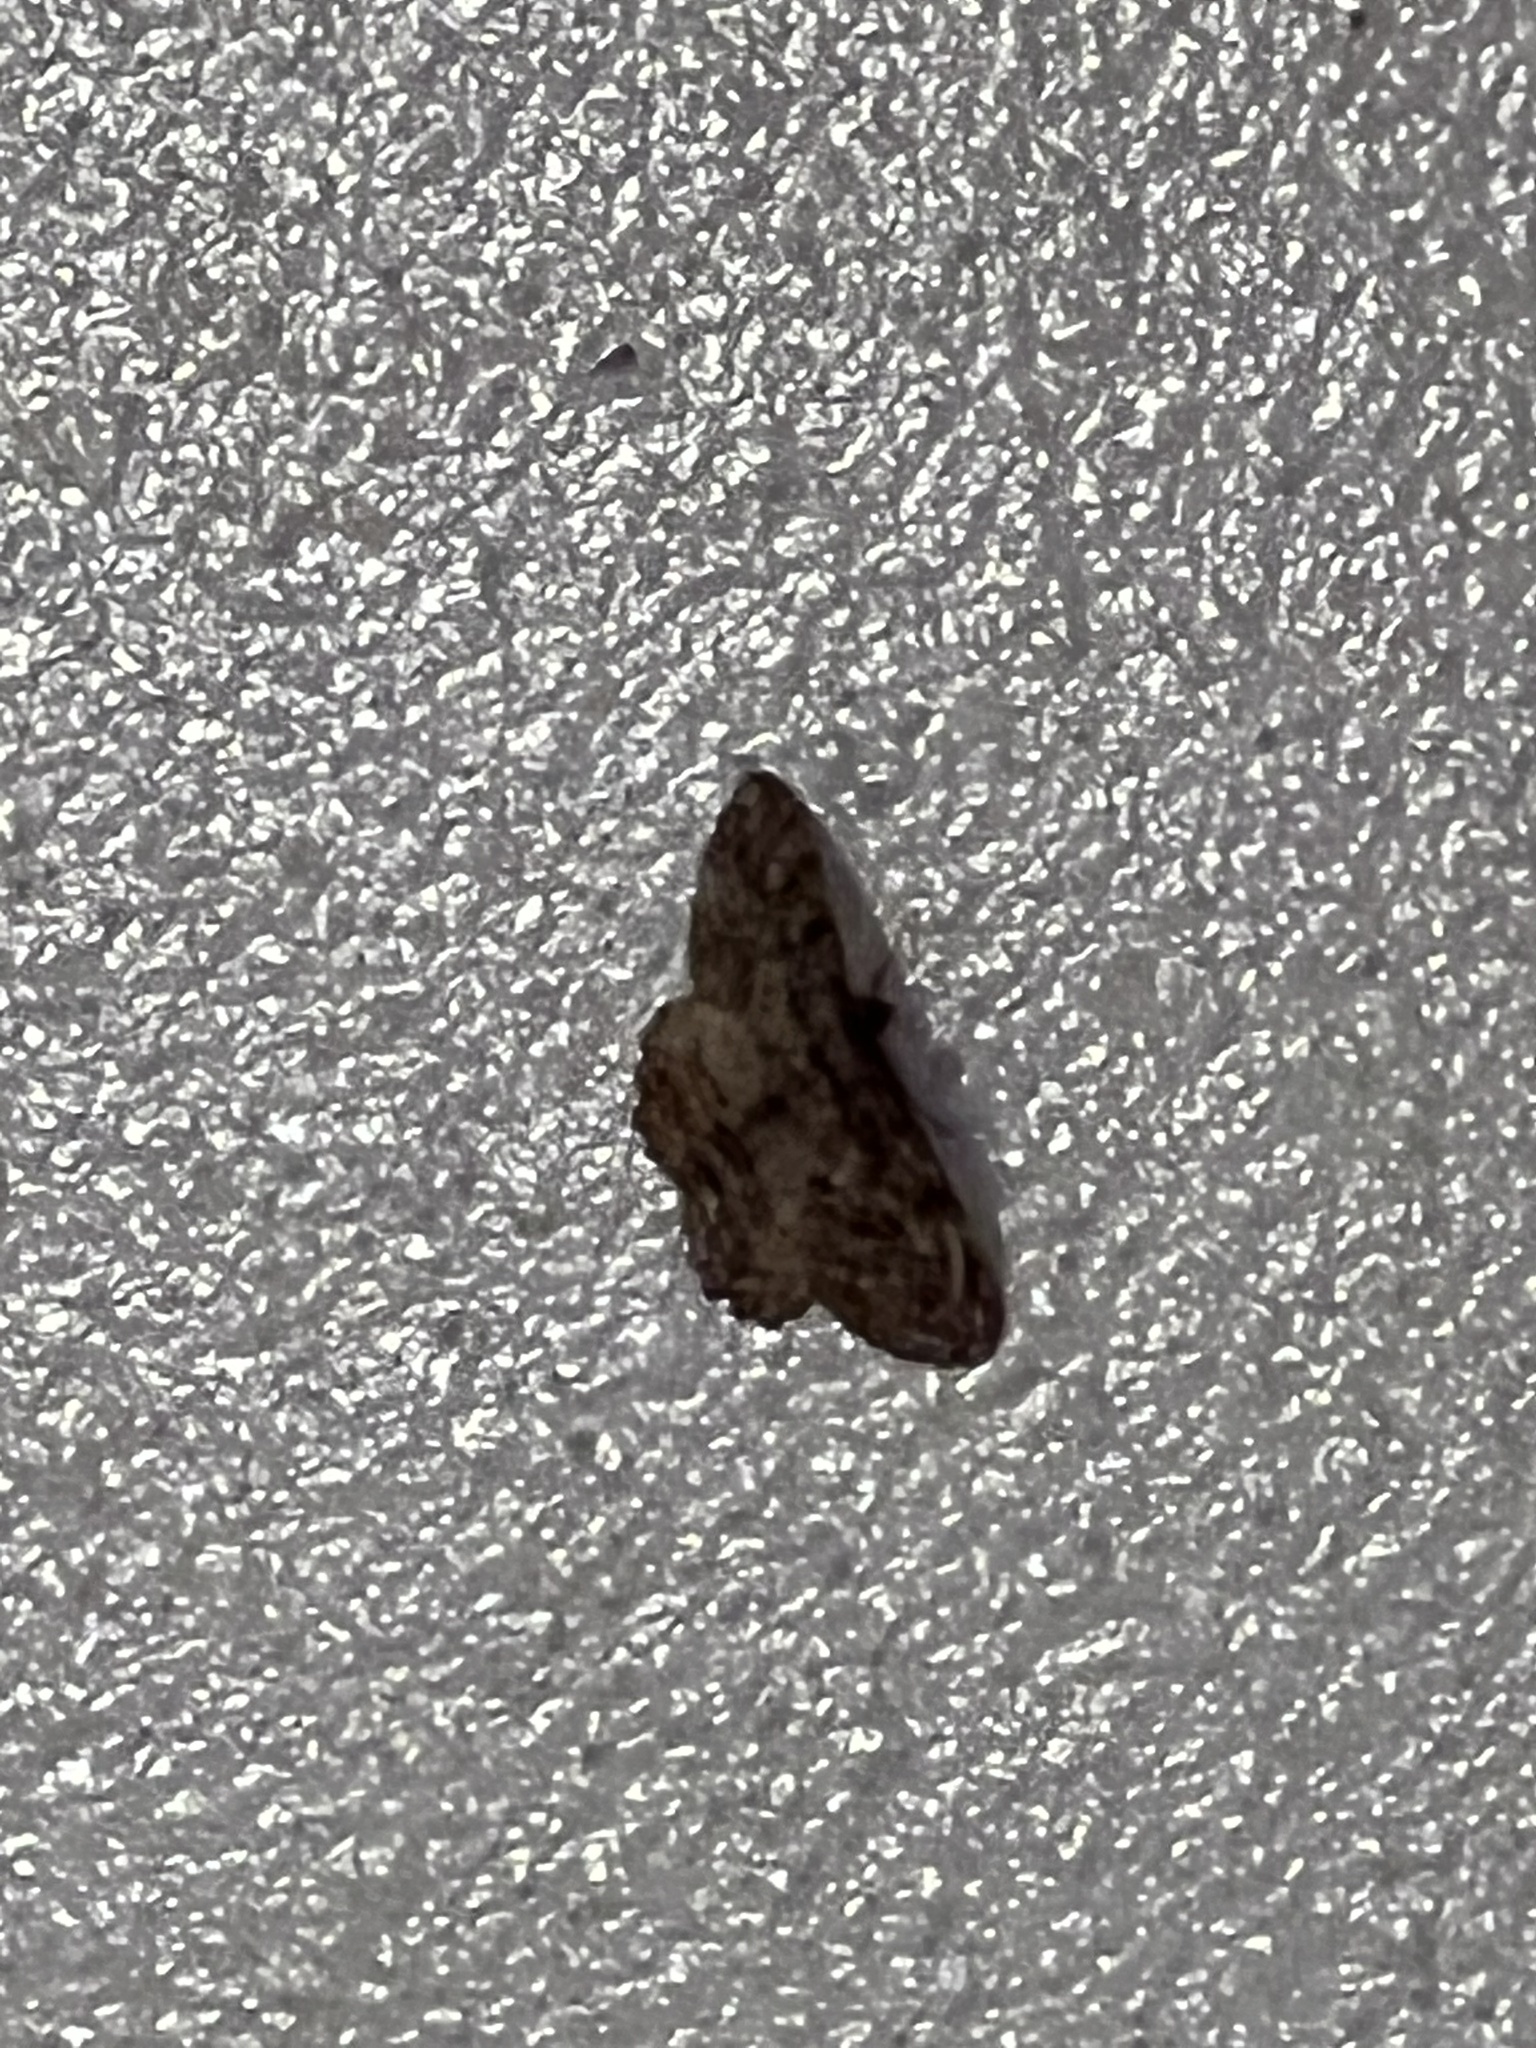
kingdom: Animalia
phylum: Arthropoda
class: Insecta
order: Lepidoptera
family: Geometridae
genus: Neoalcis
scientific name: Neoalcis californiaria
